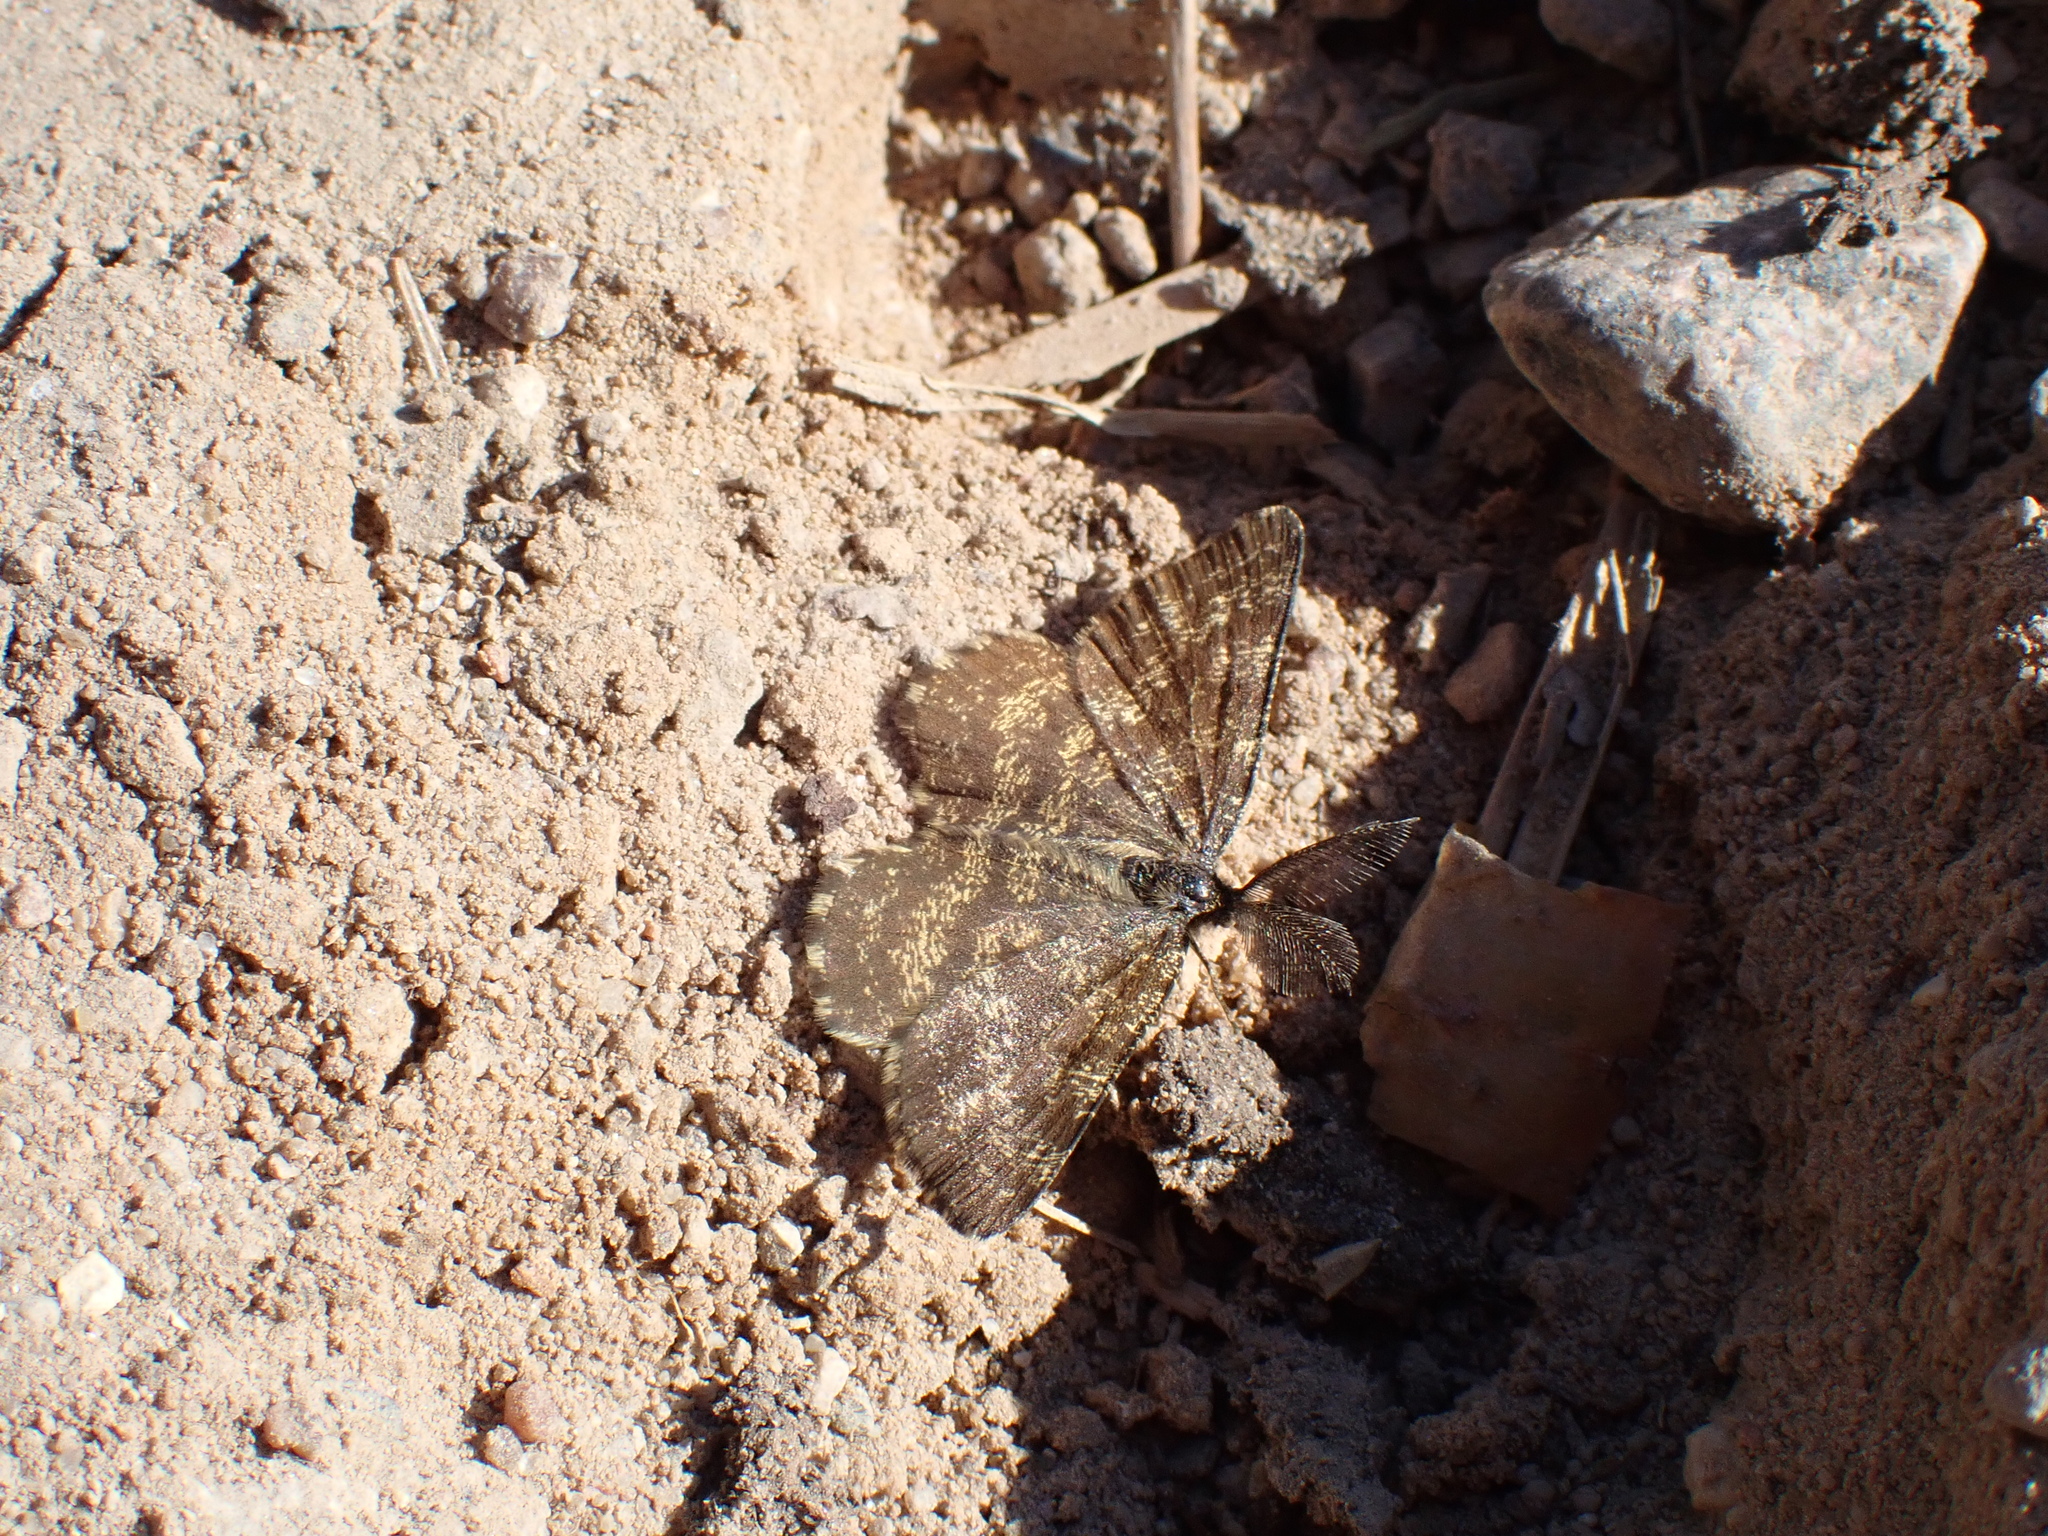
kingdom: Animalia
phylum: Arthropoda
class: Insecta
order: Lepidoptera
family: Geometridae
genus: Ematurga
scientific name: Ematurga atomaria
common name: Common heath
